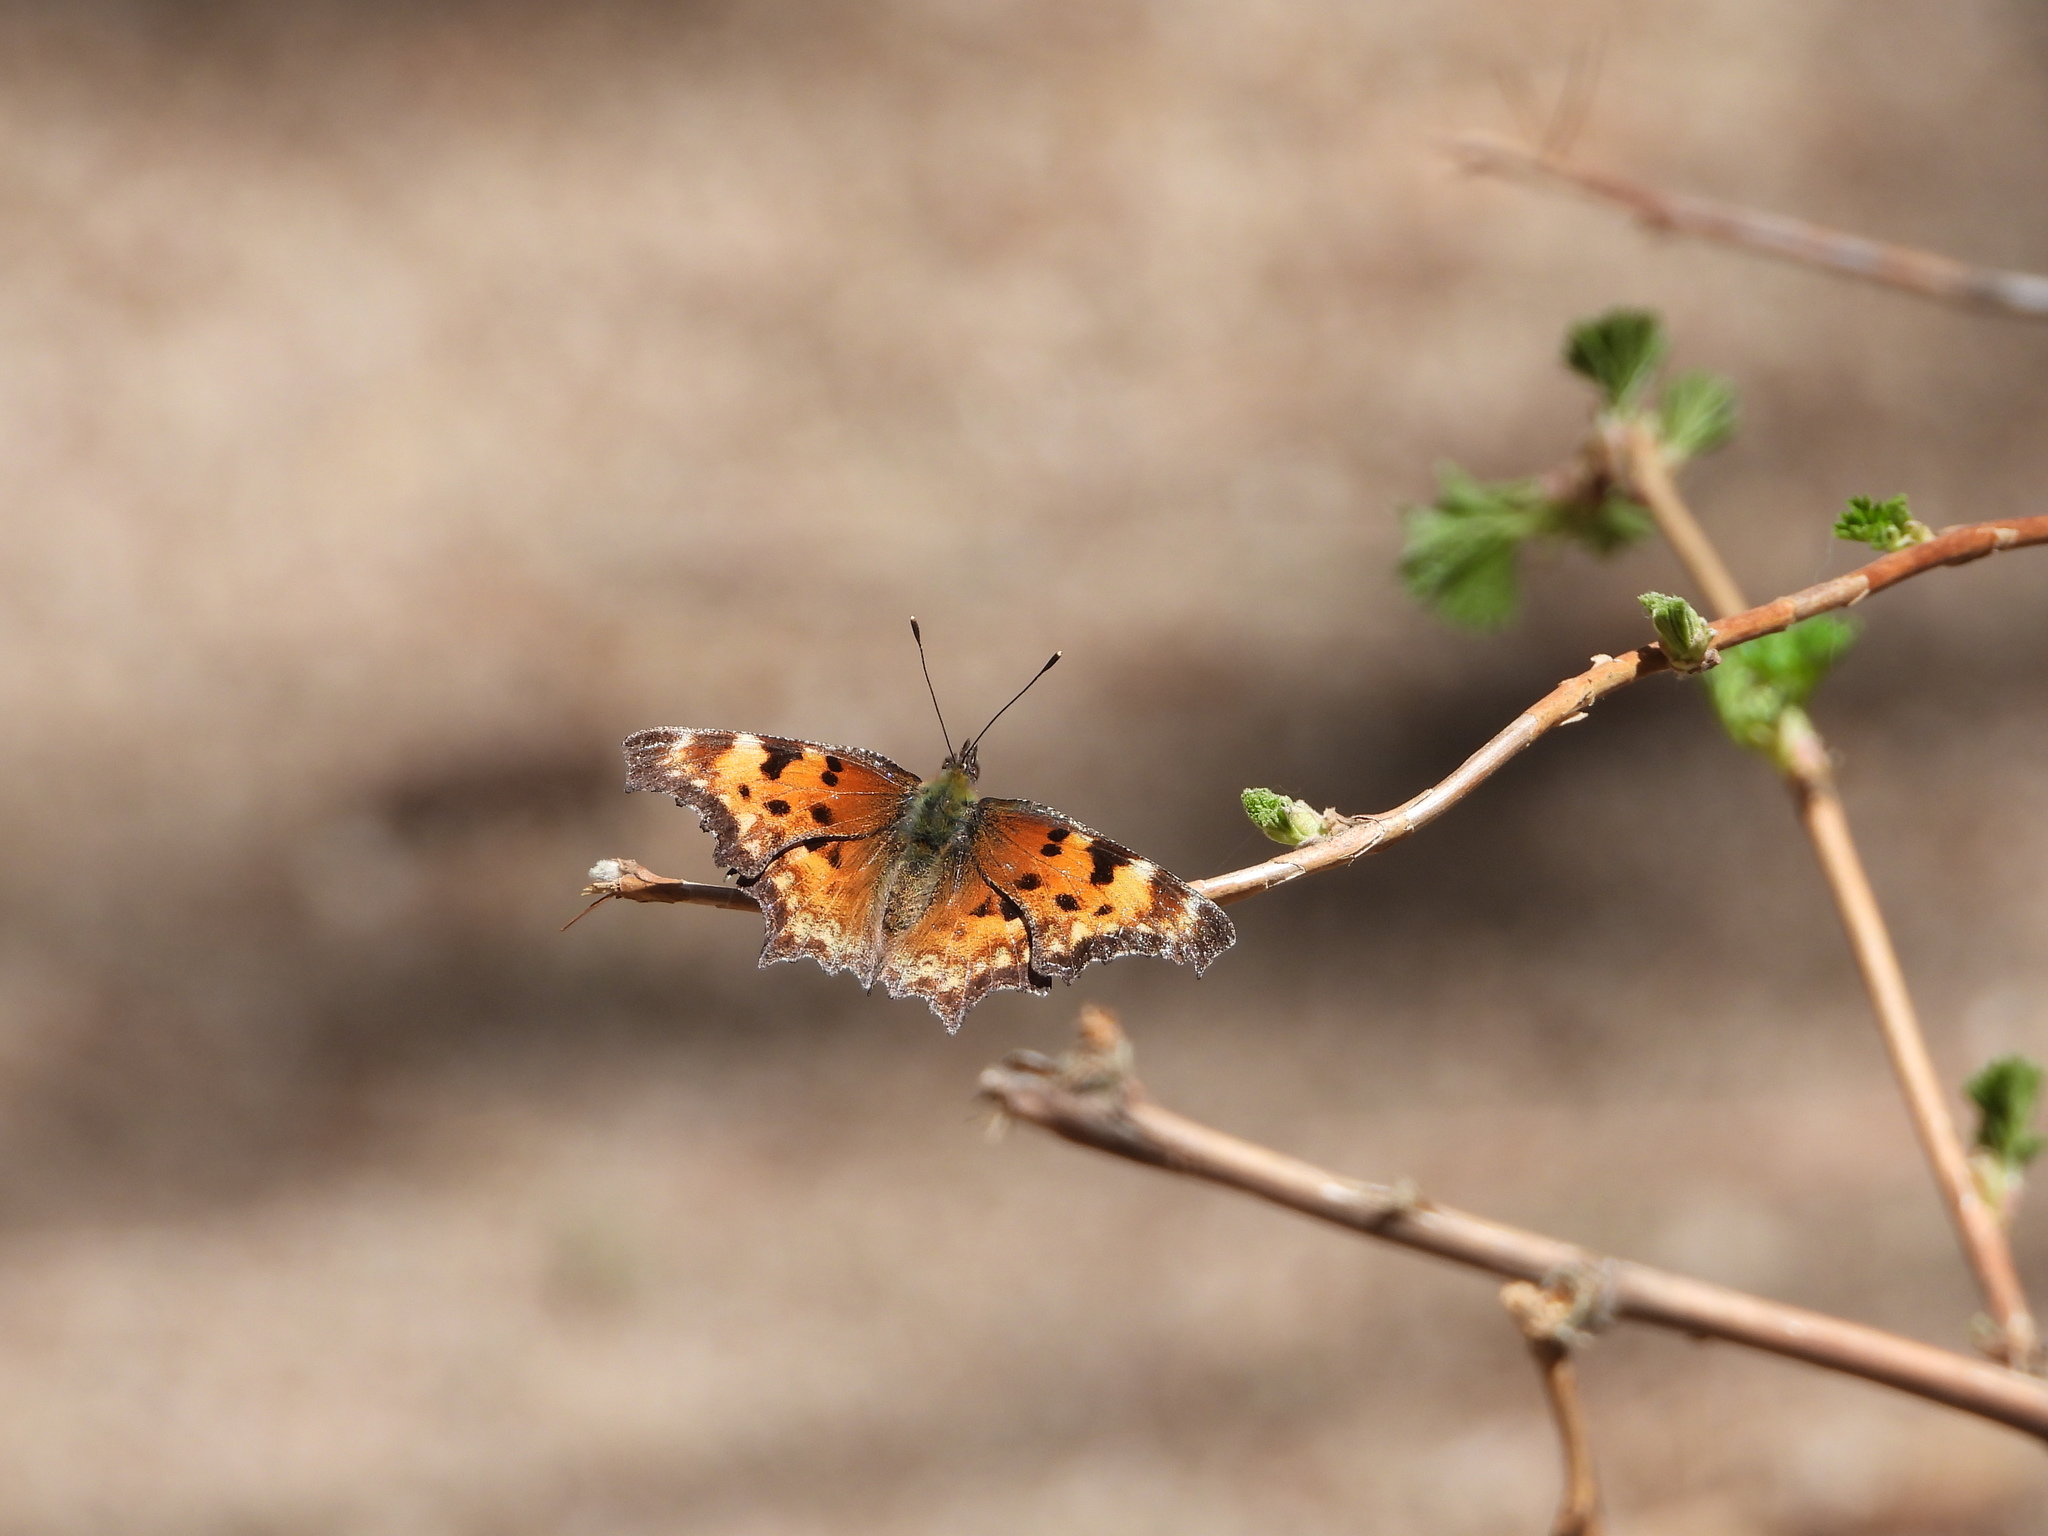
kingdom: Animalia
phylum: Arthropoda
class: Insecta
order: Lepidoptera
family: Nymphalidae
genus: Polygonia
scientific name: Polygonia gracilis
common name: Hoary comma
